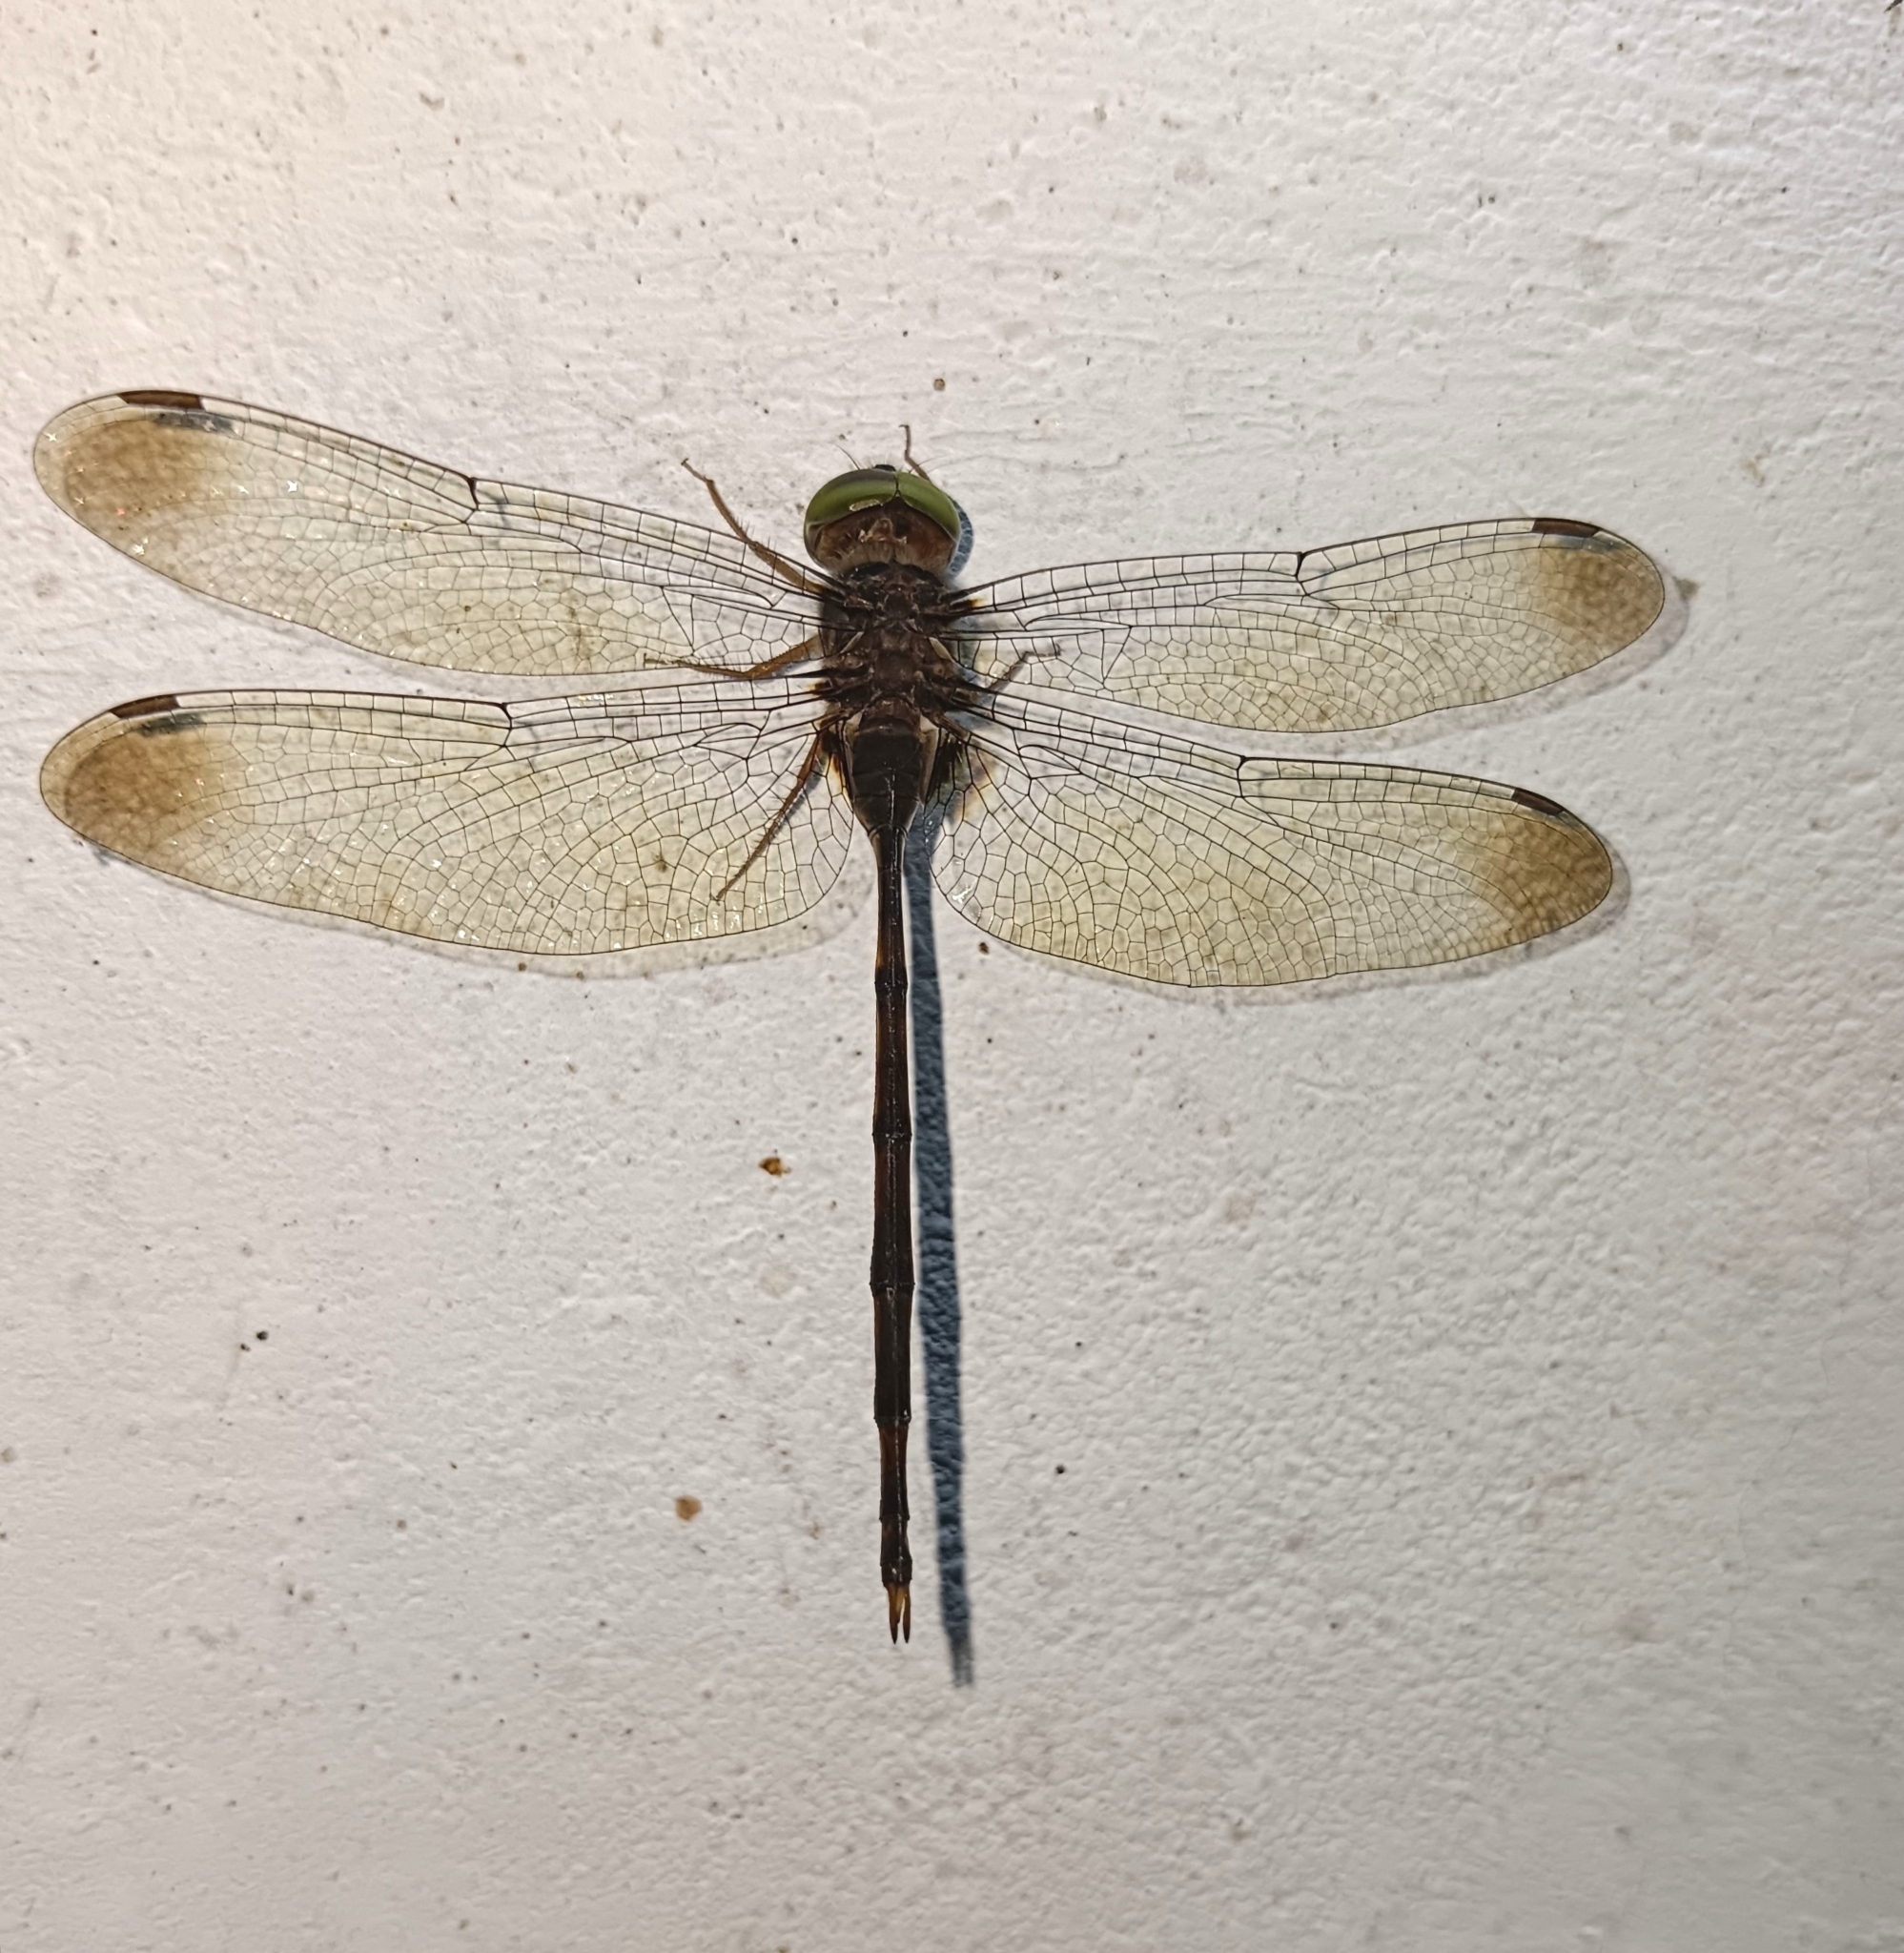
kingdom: Animalia
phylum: Arthropoda
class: Insecta
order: Odonata
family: Libellulidae
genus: Zyxomma
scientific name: Zyxomma petiolatum
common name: Dingy dusk-darter
